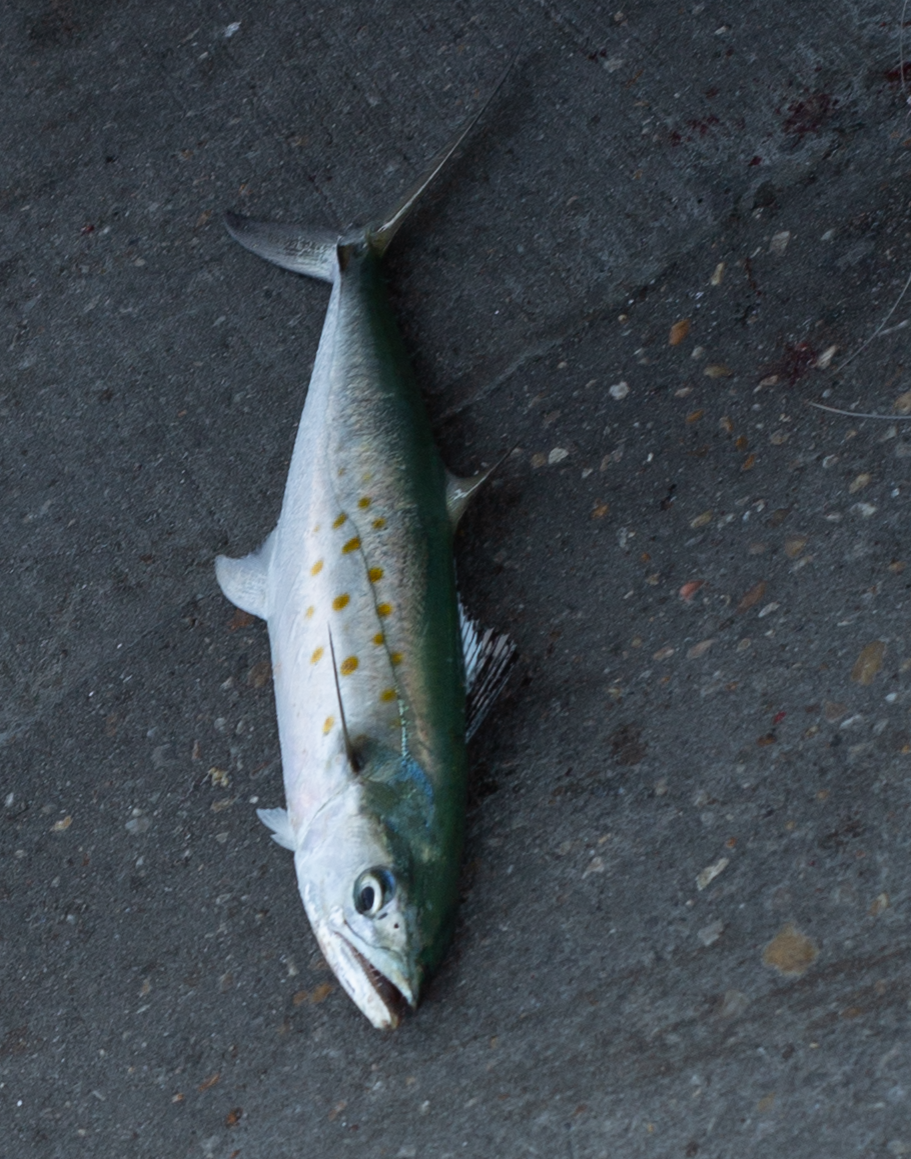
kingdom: Animalia
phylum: Chordata
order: Perciformes
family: Scombridae
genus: Scomberomorus
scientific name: Scomberomorus maculatus
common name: Spanish mackerel
